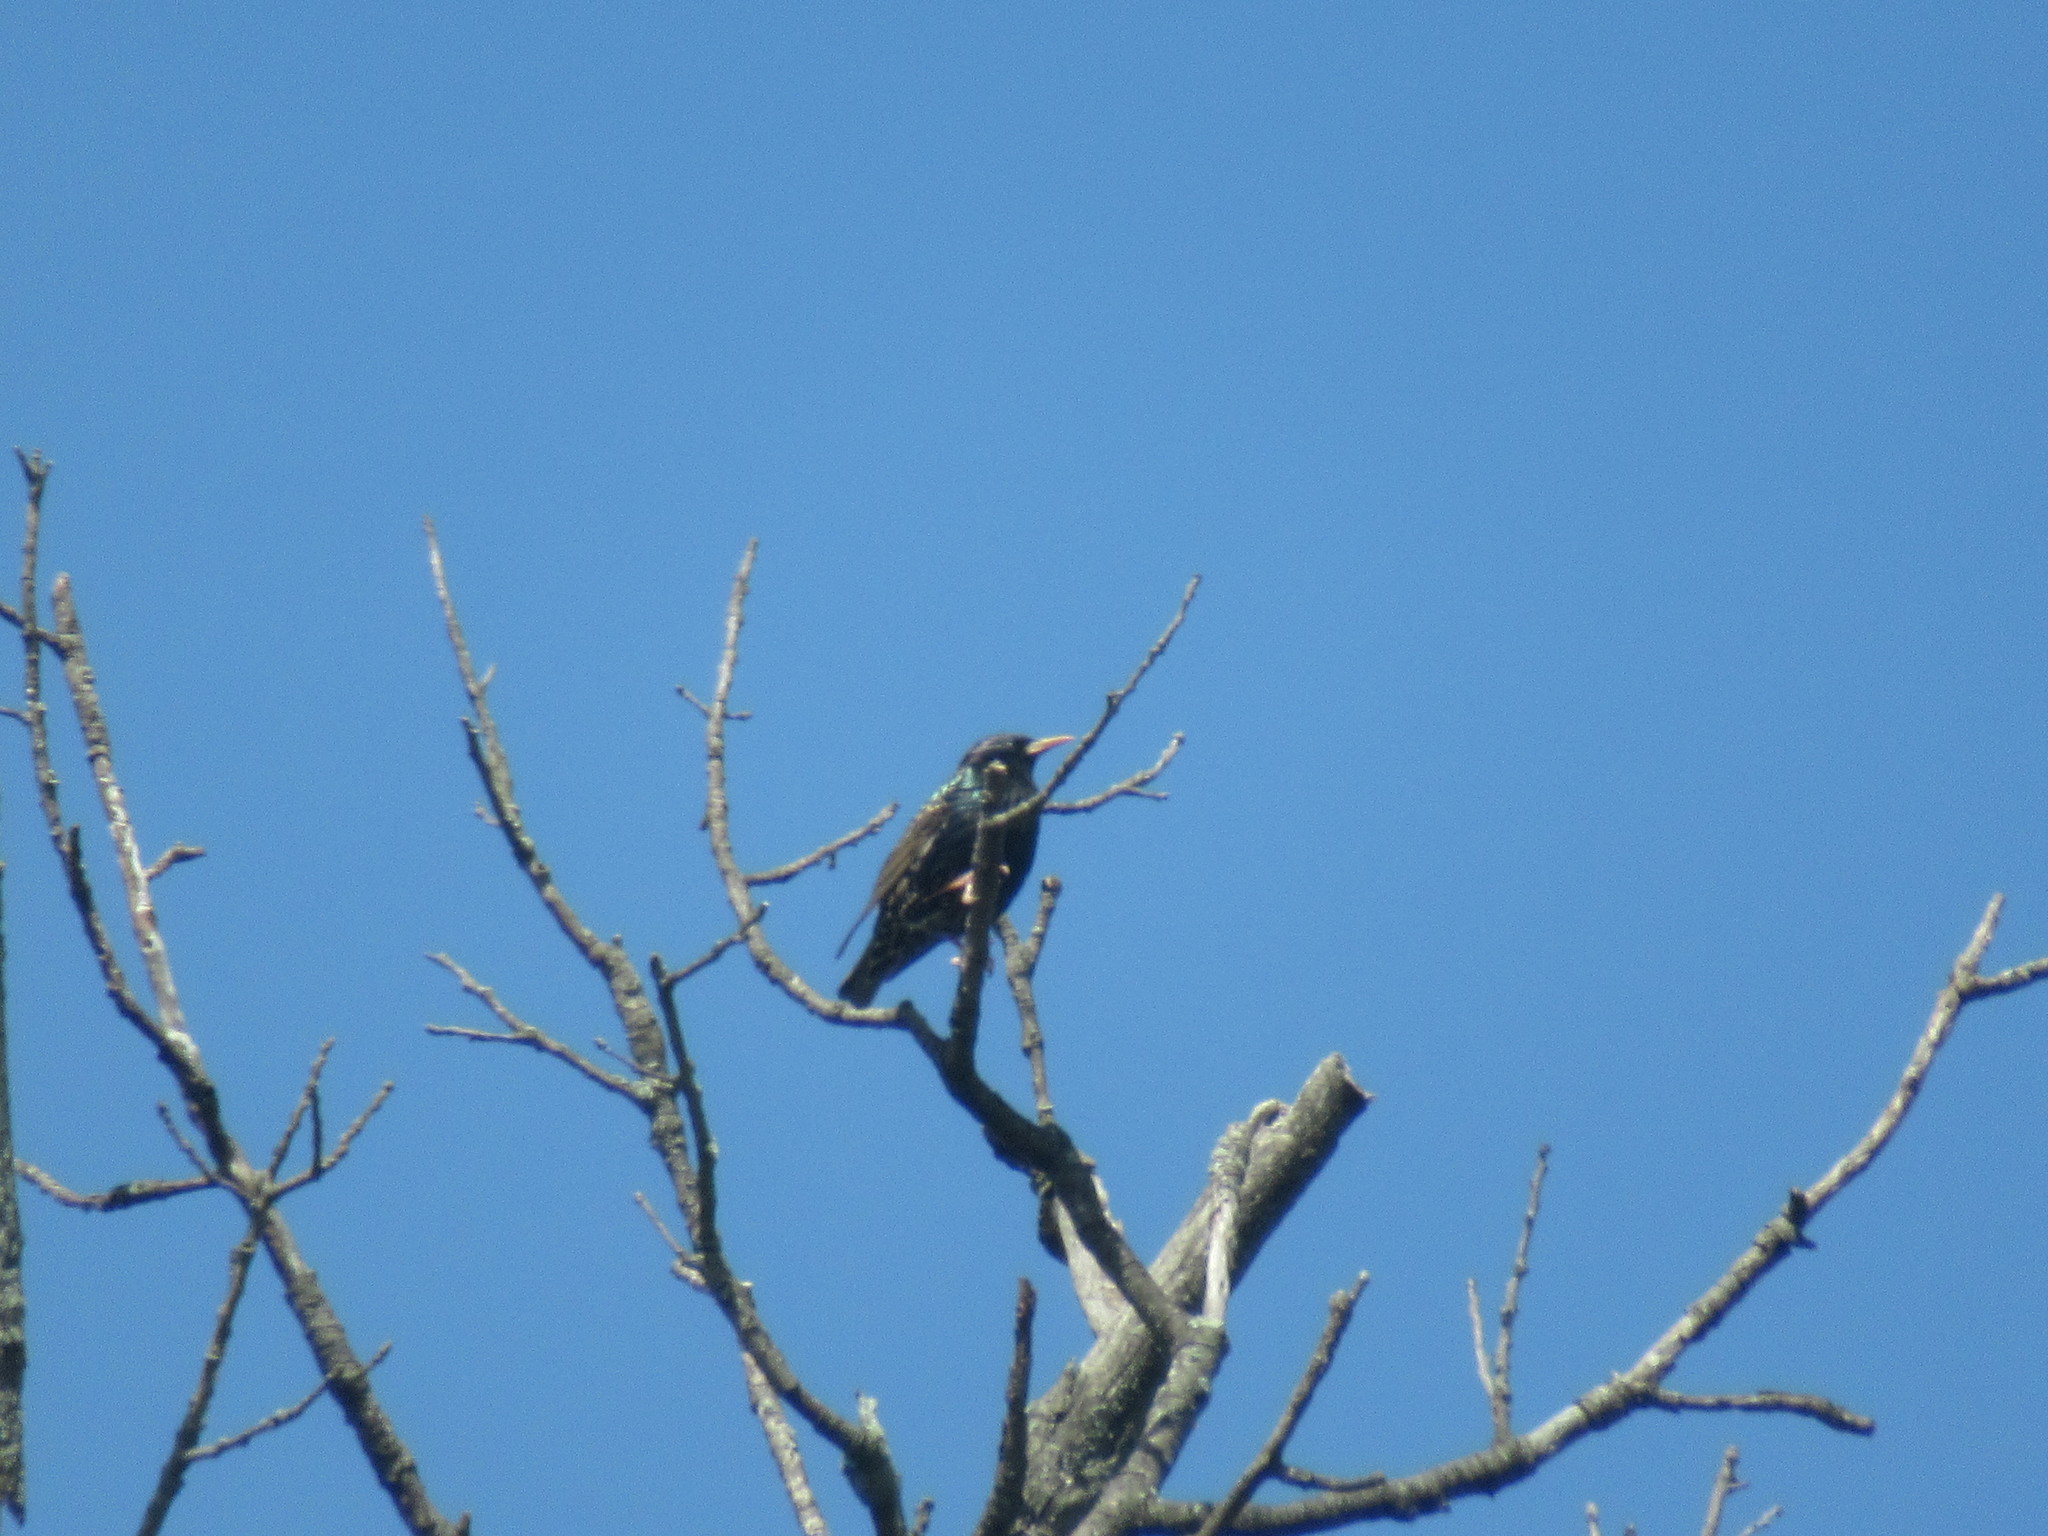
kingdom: Animalia
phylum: Chordata
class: Aves
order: Passeriformes
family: Sturnidae
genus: Sturnus
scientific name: Sturnus vulgaris
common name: Common starling
